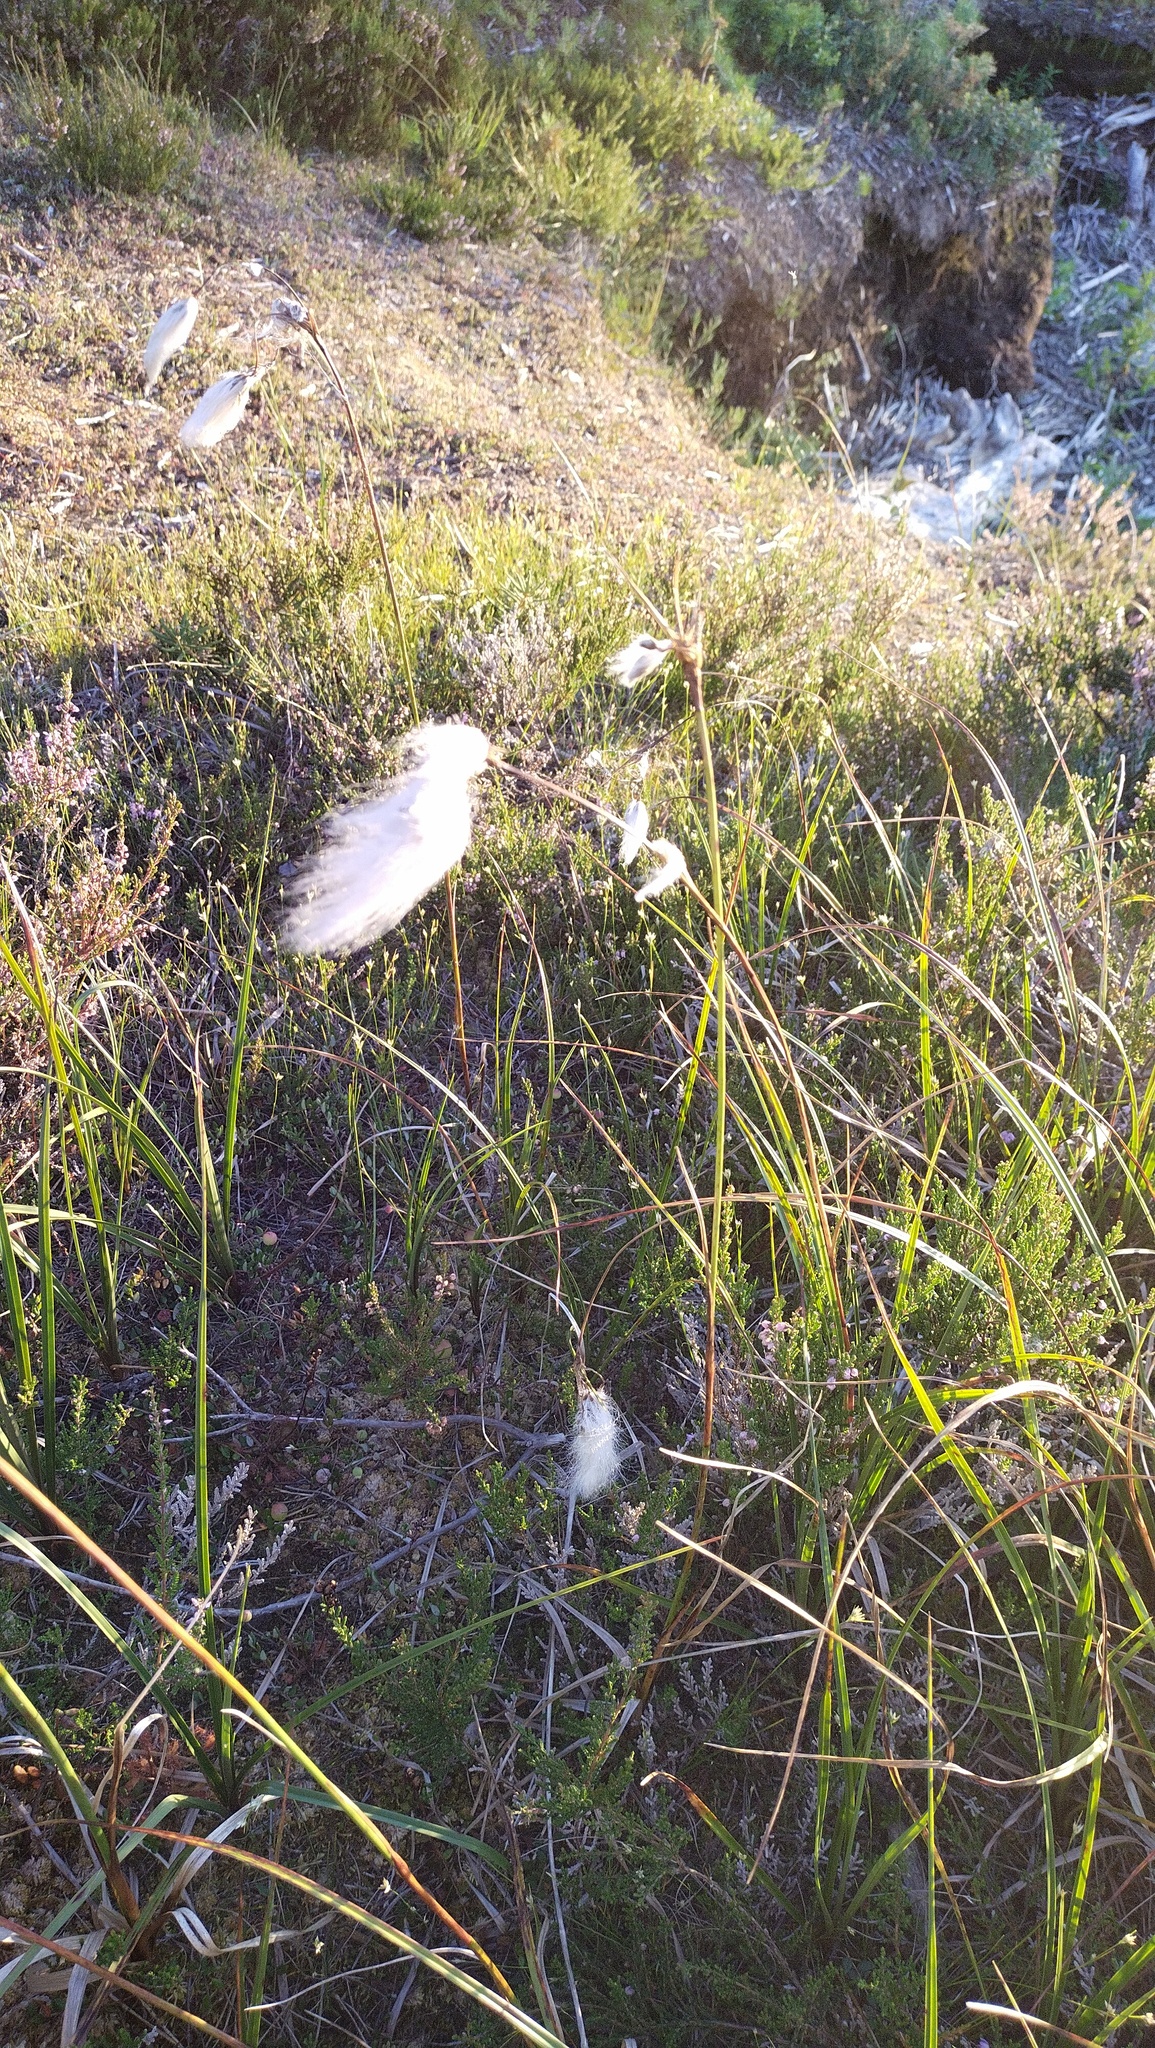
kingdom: Plantae
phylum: Tracheophyta
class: Liliopsida
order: Poales
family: Cyperaceae
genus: Eriophorum
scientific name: Eriophorum angustifolium
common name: Common cottongrass
